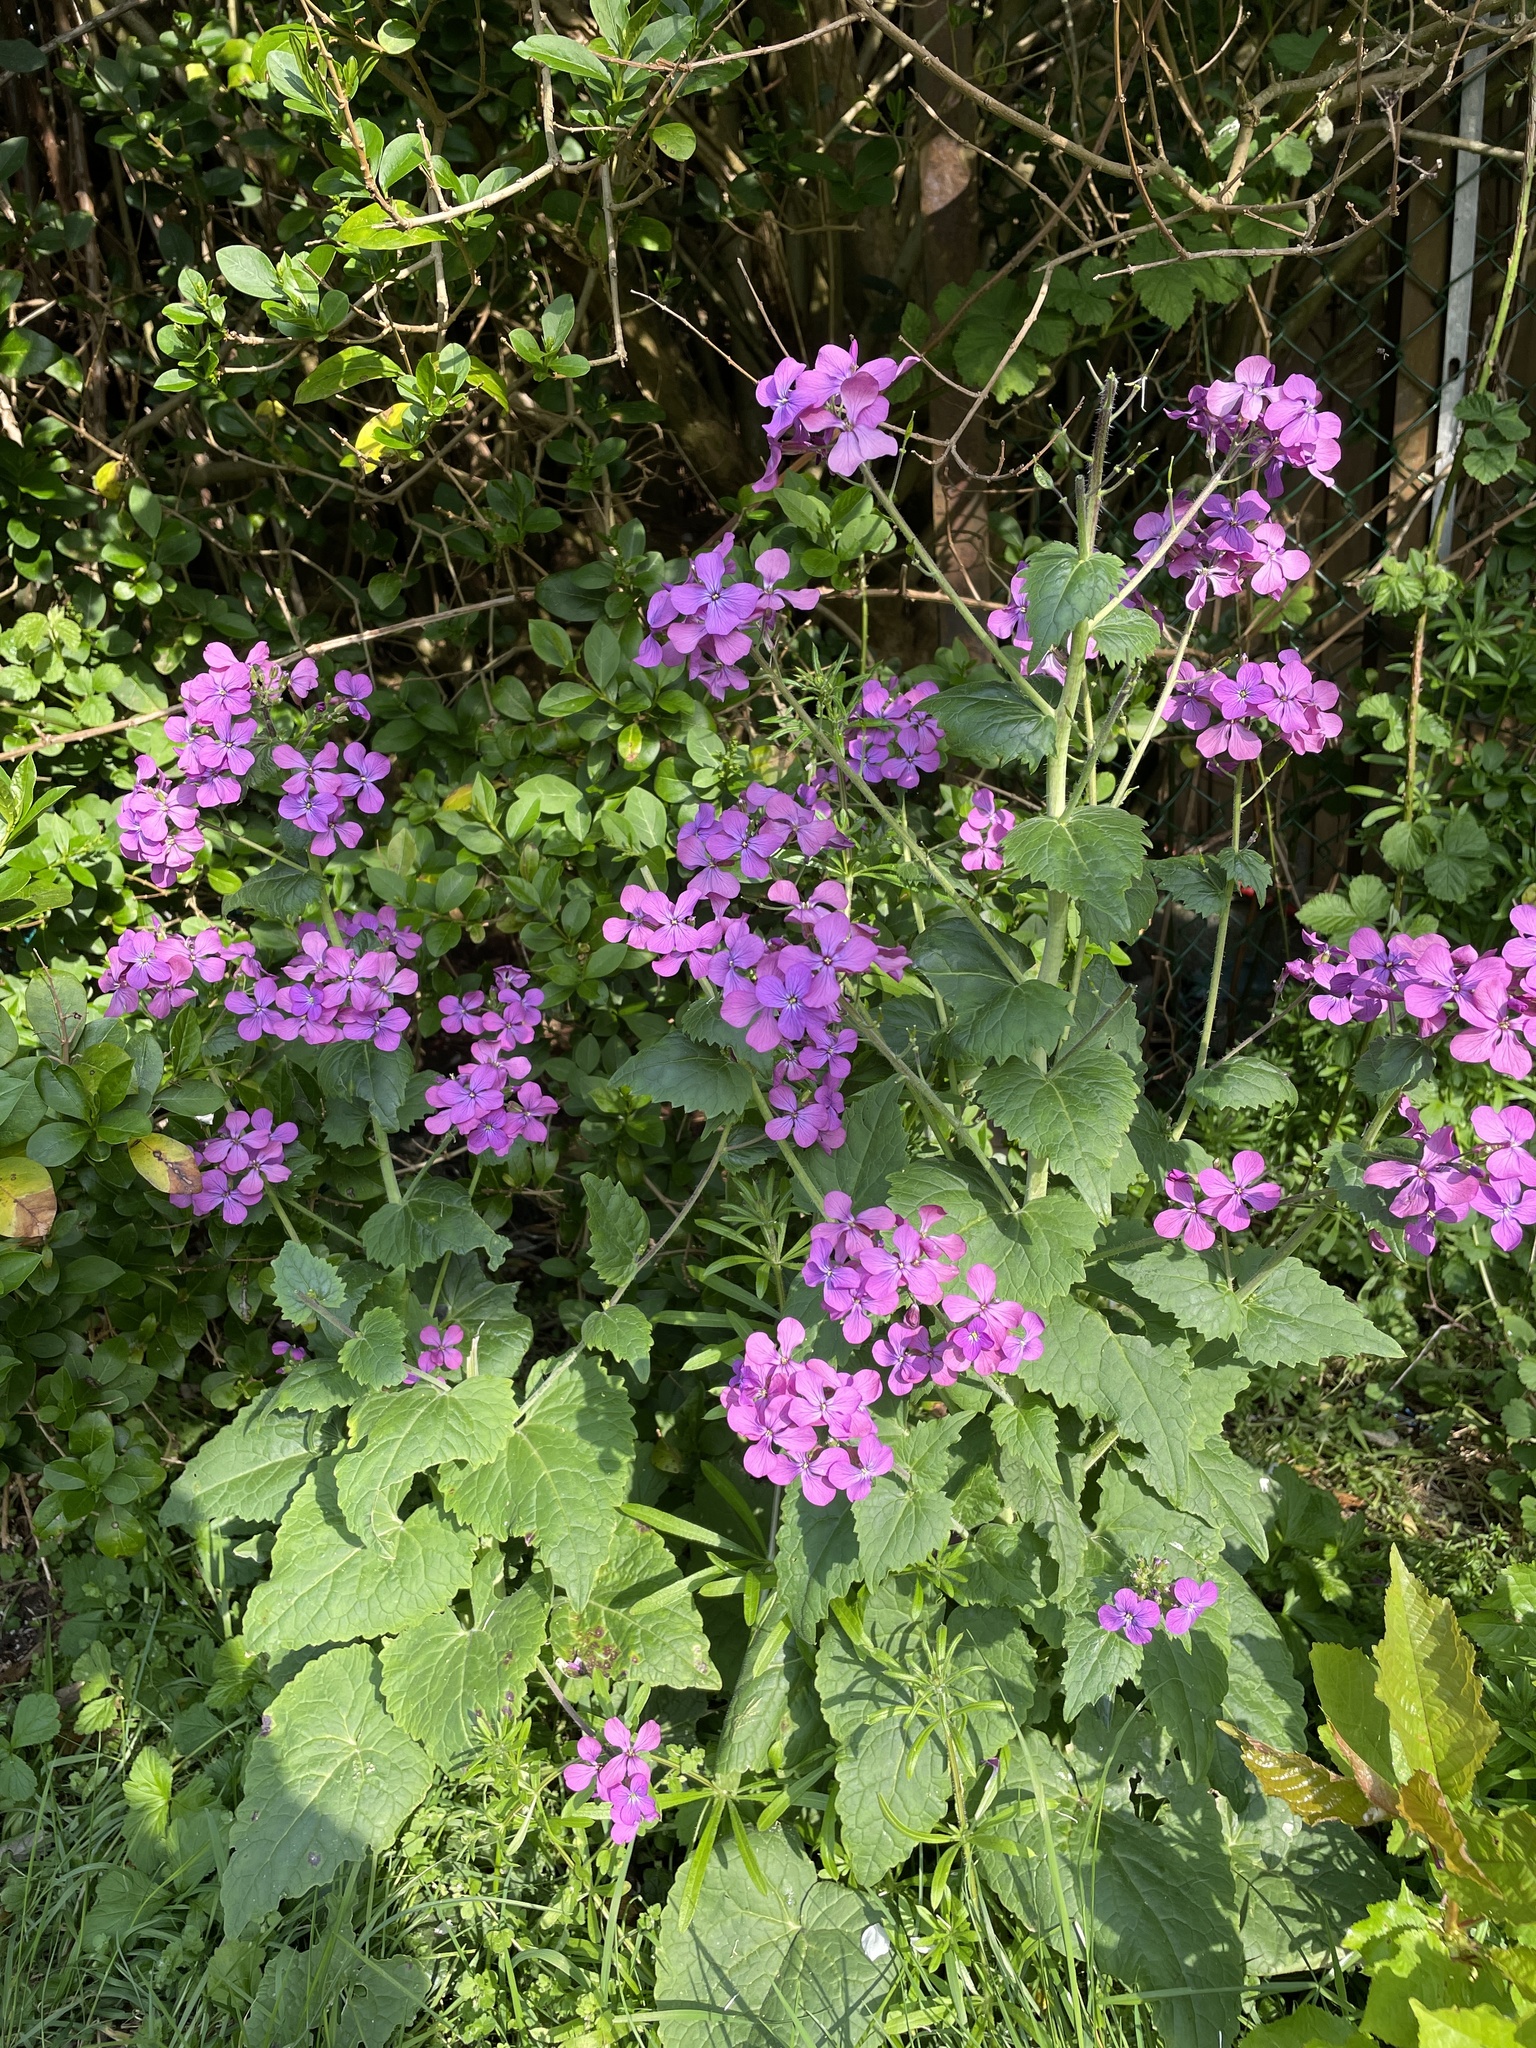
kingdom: Plantae
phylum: Tracheophyta
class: Magnoliopsida
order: Brassicales
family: Brassicaceae
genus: Lunaria
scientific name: Lunaria annua
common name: Honesty
